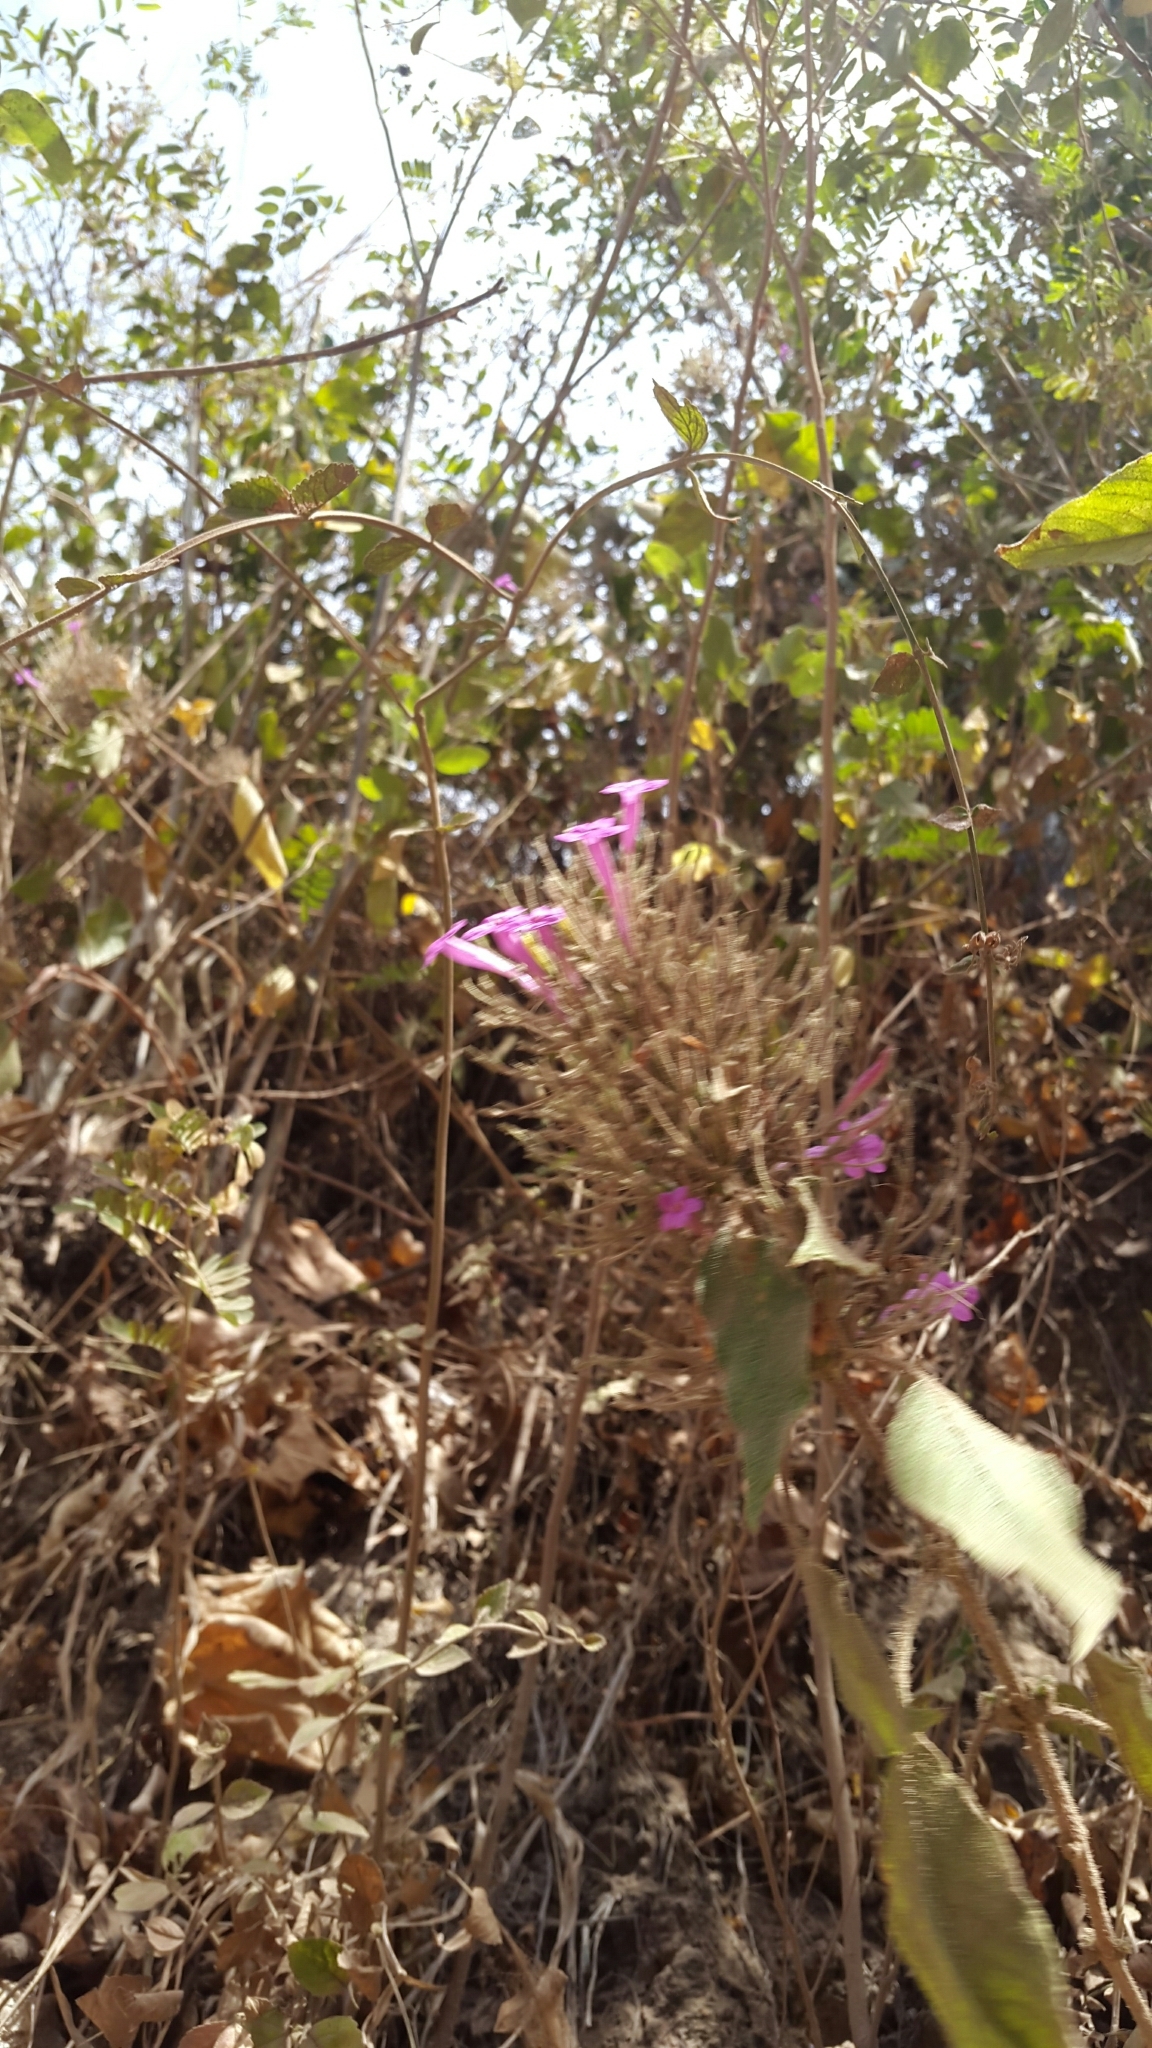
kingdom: Plantae
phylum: Tracheophyta
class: Magnoliopsida
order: Lamiales
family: Acanthaceae
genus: Ruellia
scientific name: Ruellia inundata
